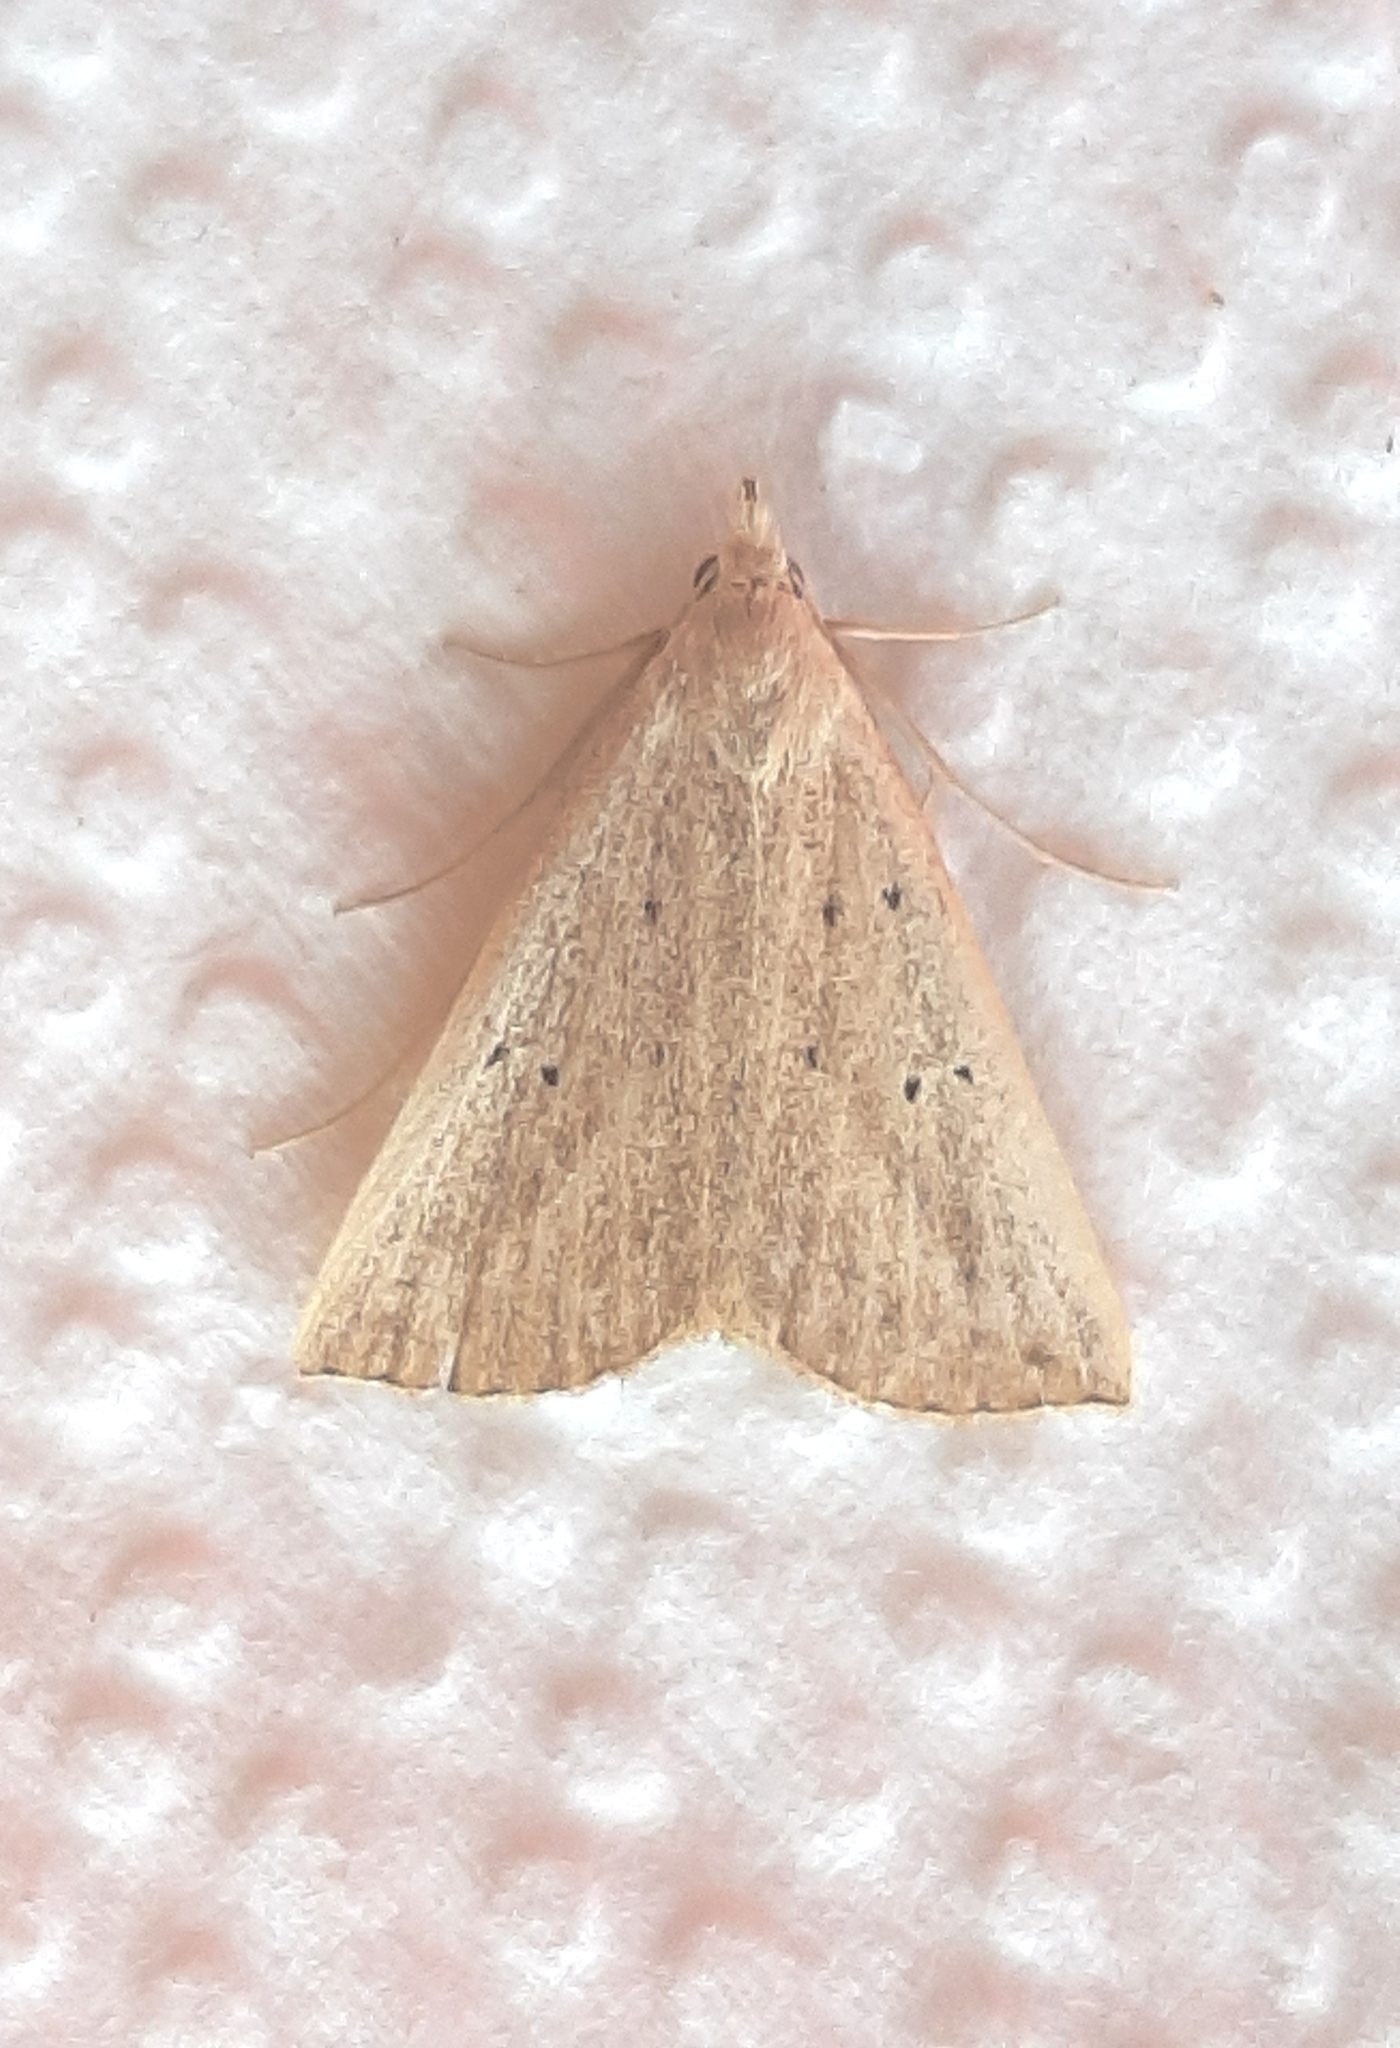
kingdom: Animalia
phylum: Arthropoda
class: Insecta
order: Lepidoptera
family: Erebidae
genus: Macrochilo
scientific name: Macrochilo louisiana
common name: Louisiana macrochilo
